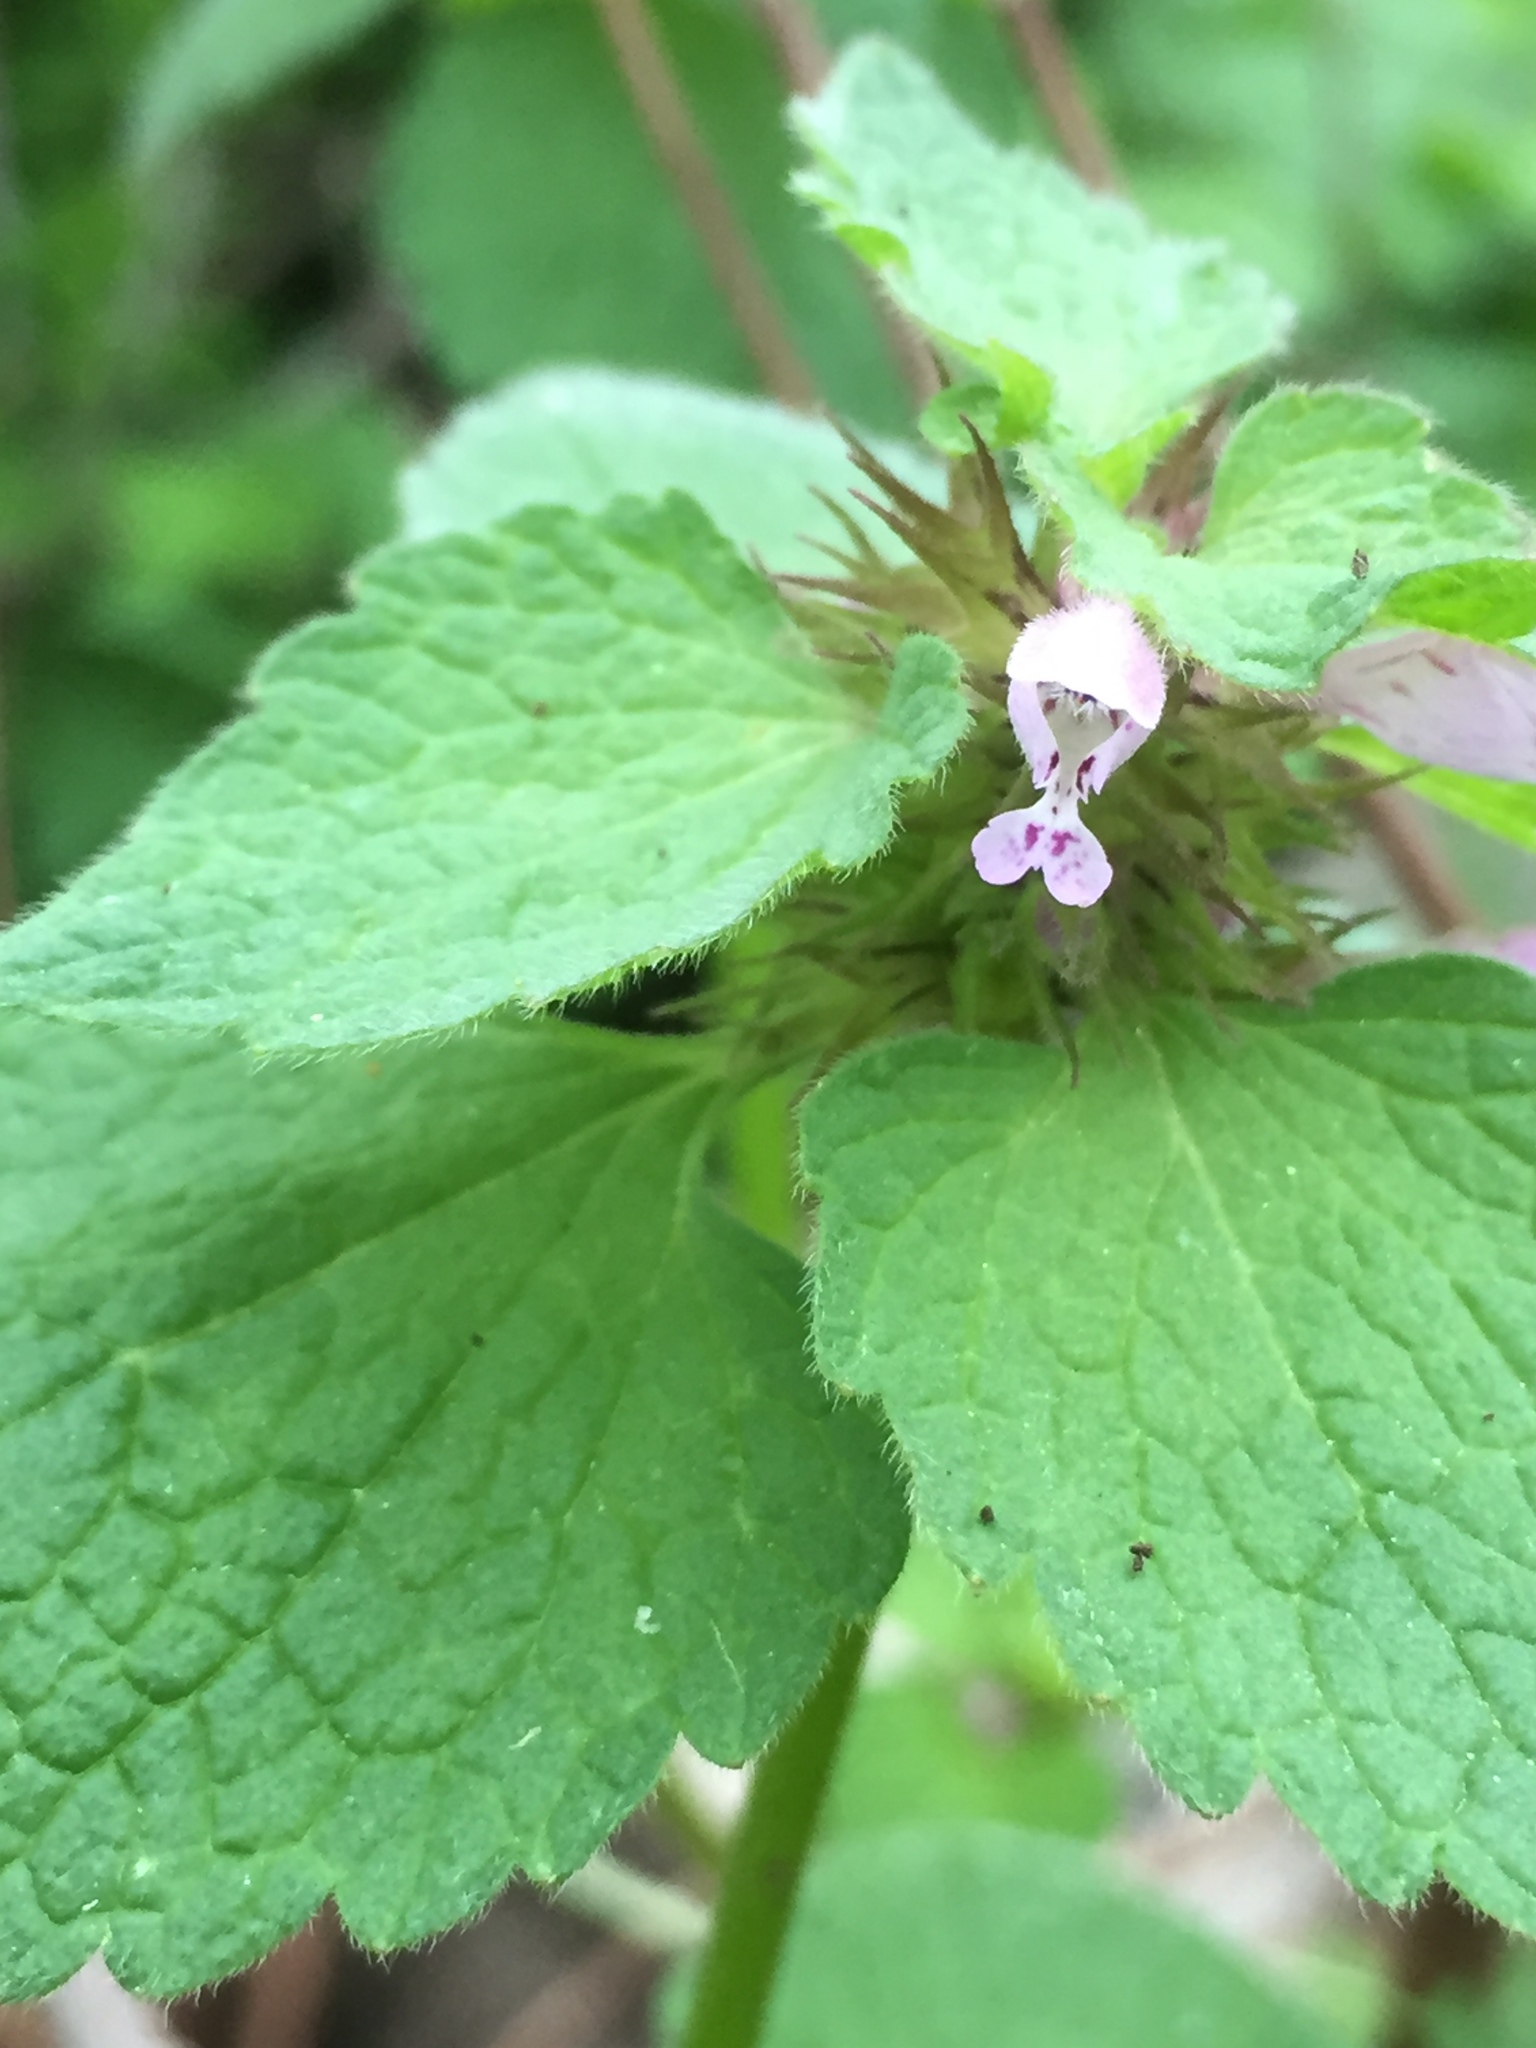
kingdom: Plantae
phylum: Tracheophyta
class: Magnoliopsida
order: Lamiales
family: Lamiaceae
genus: Lamium
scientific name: Lamium purpureum
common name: Red dead-nettle
